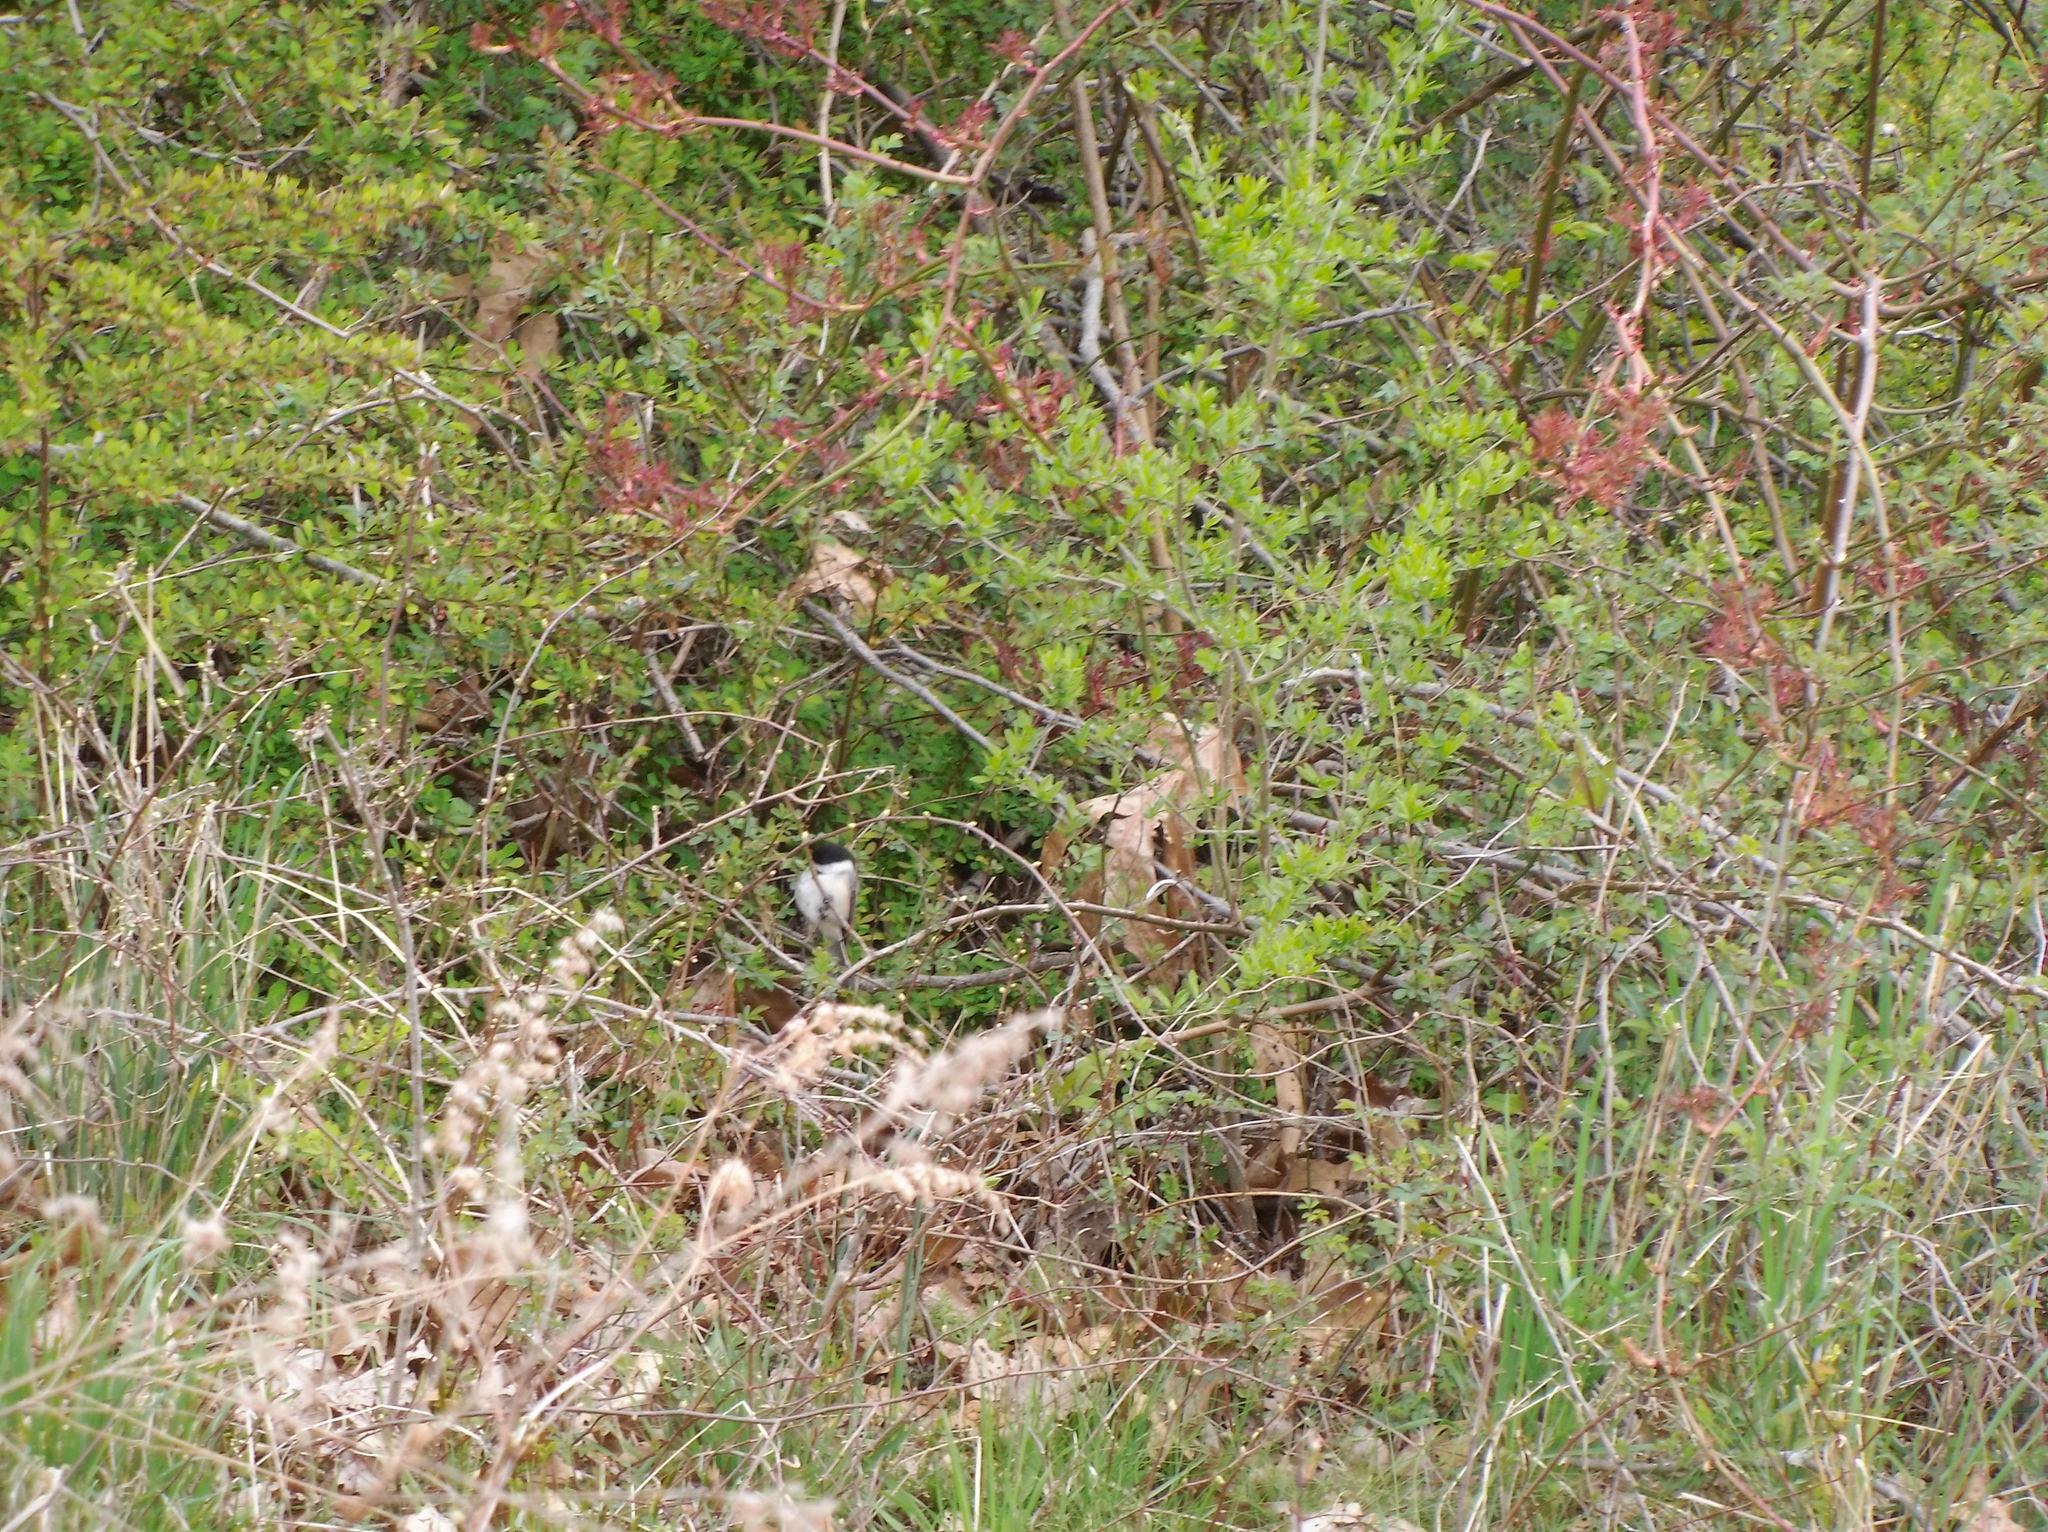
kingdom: Animalia
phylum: Chordata
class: Aves
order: Passeriformes
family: Paridae
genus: Poecile
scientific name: Poecile atricapillus
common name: Black-capped chickadee
